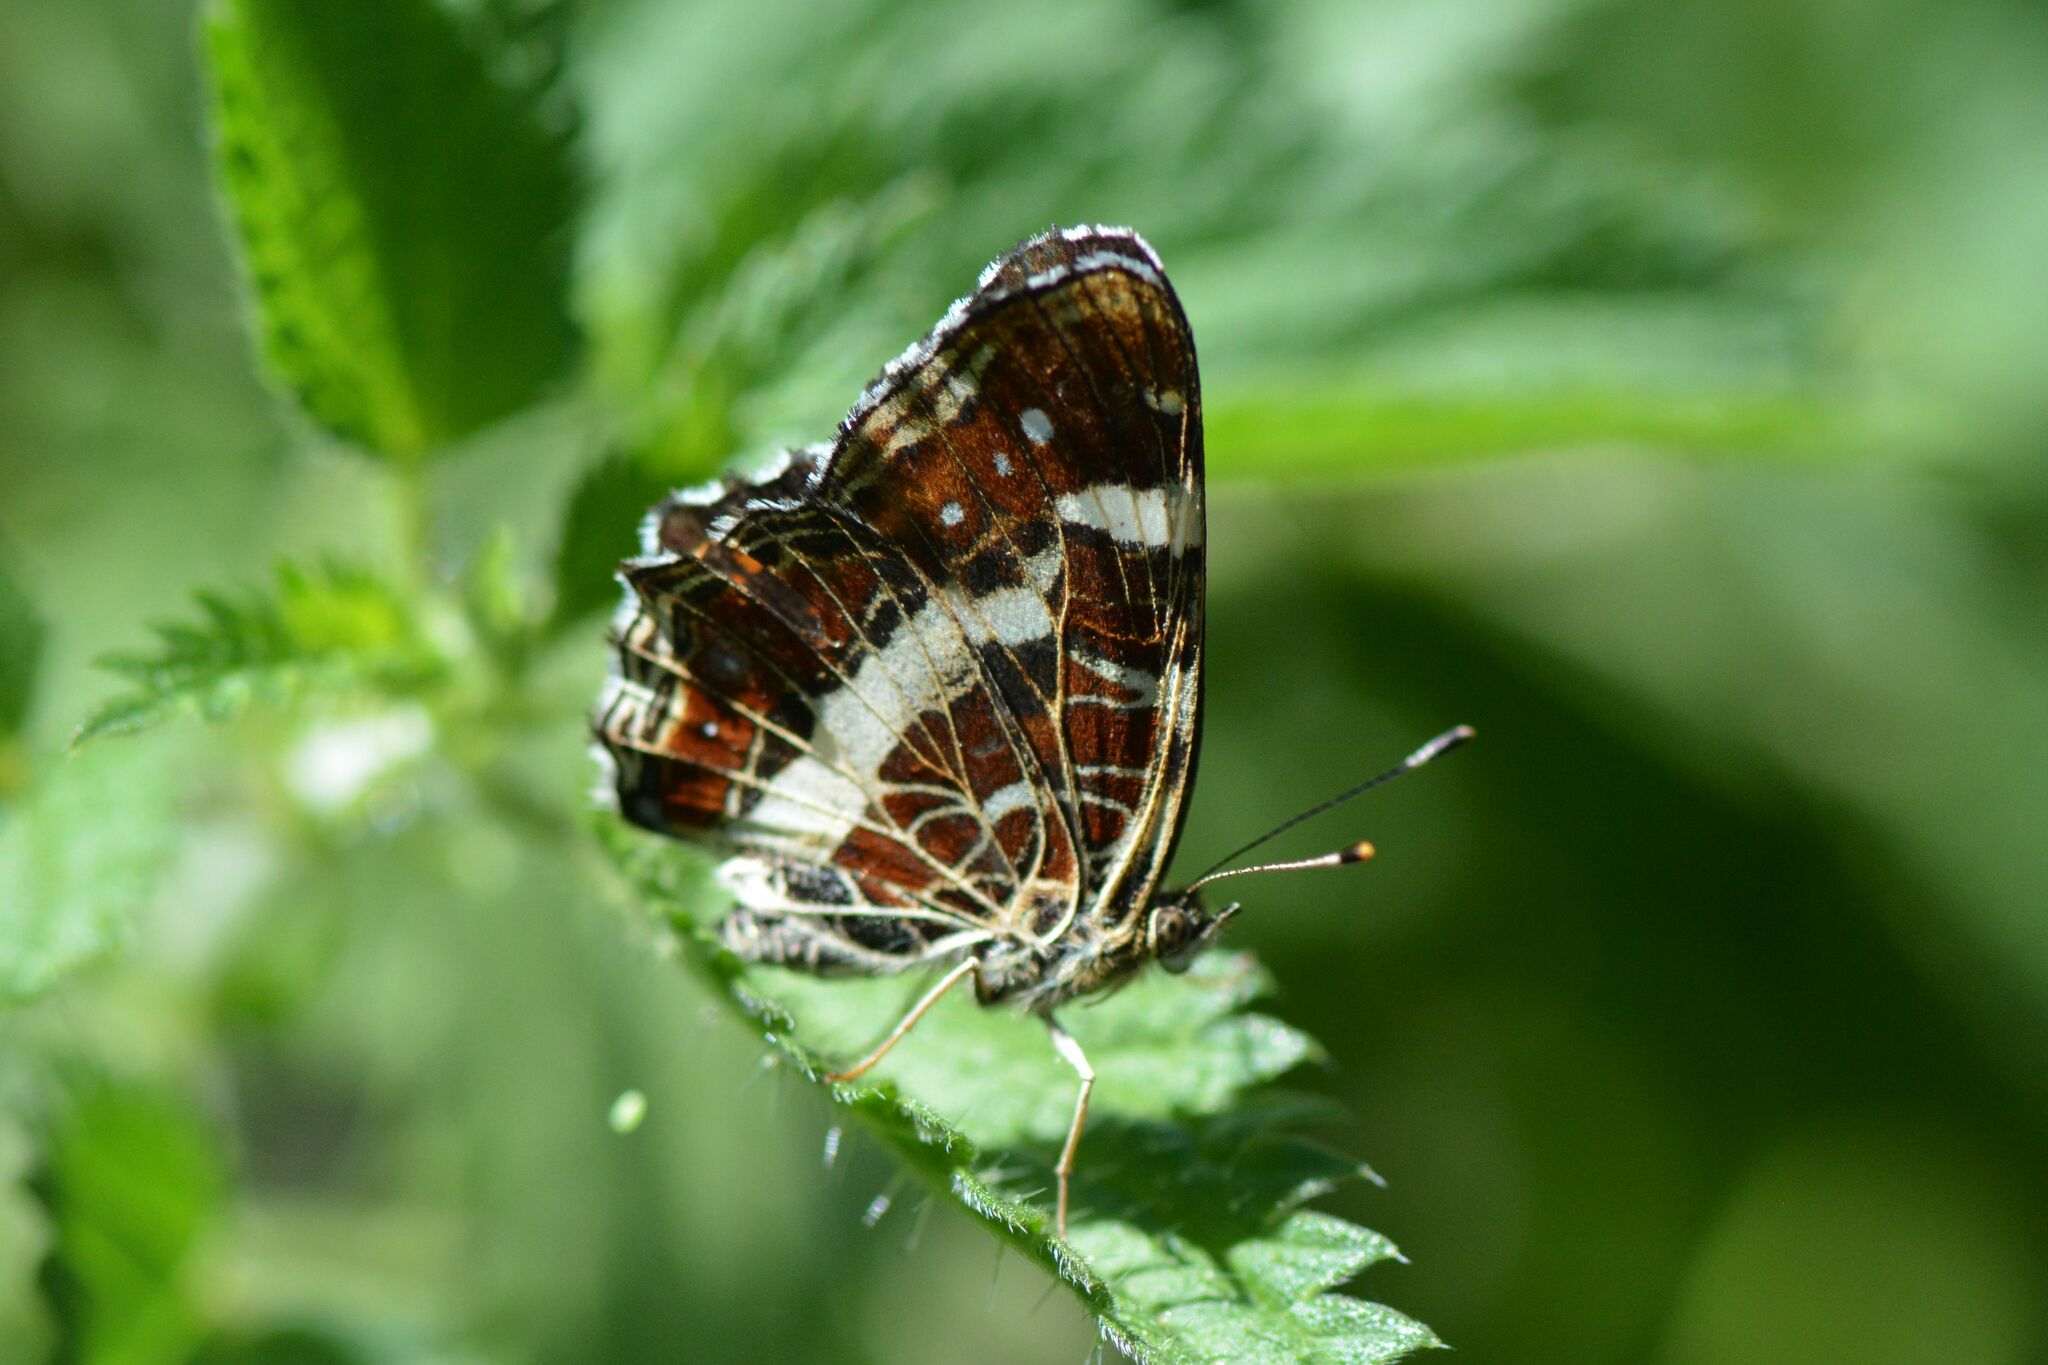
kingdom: Animalia
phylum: Arthropoda
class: Insecta
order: Lepidoptera
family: Nymphalidae
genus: Araschnia
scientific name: Araschnia levana
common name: Map butterfly
